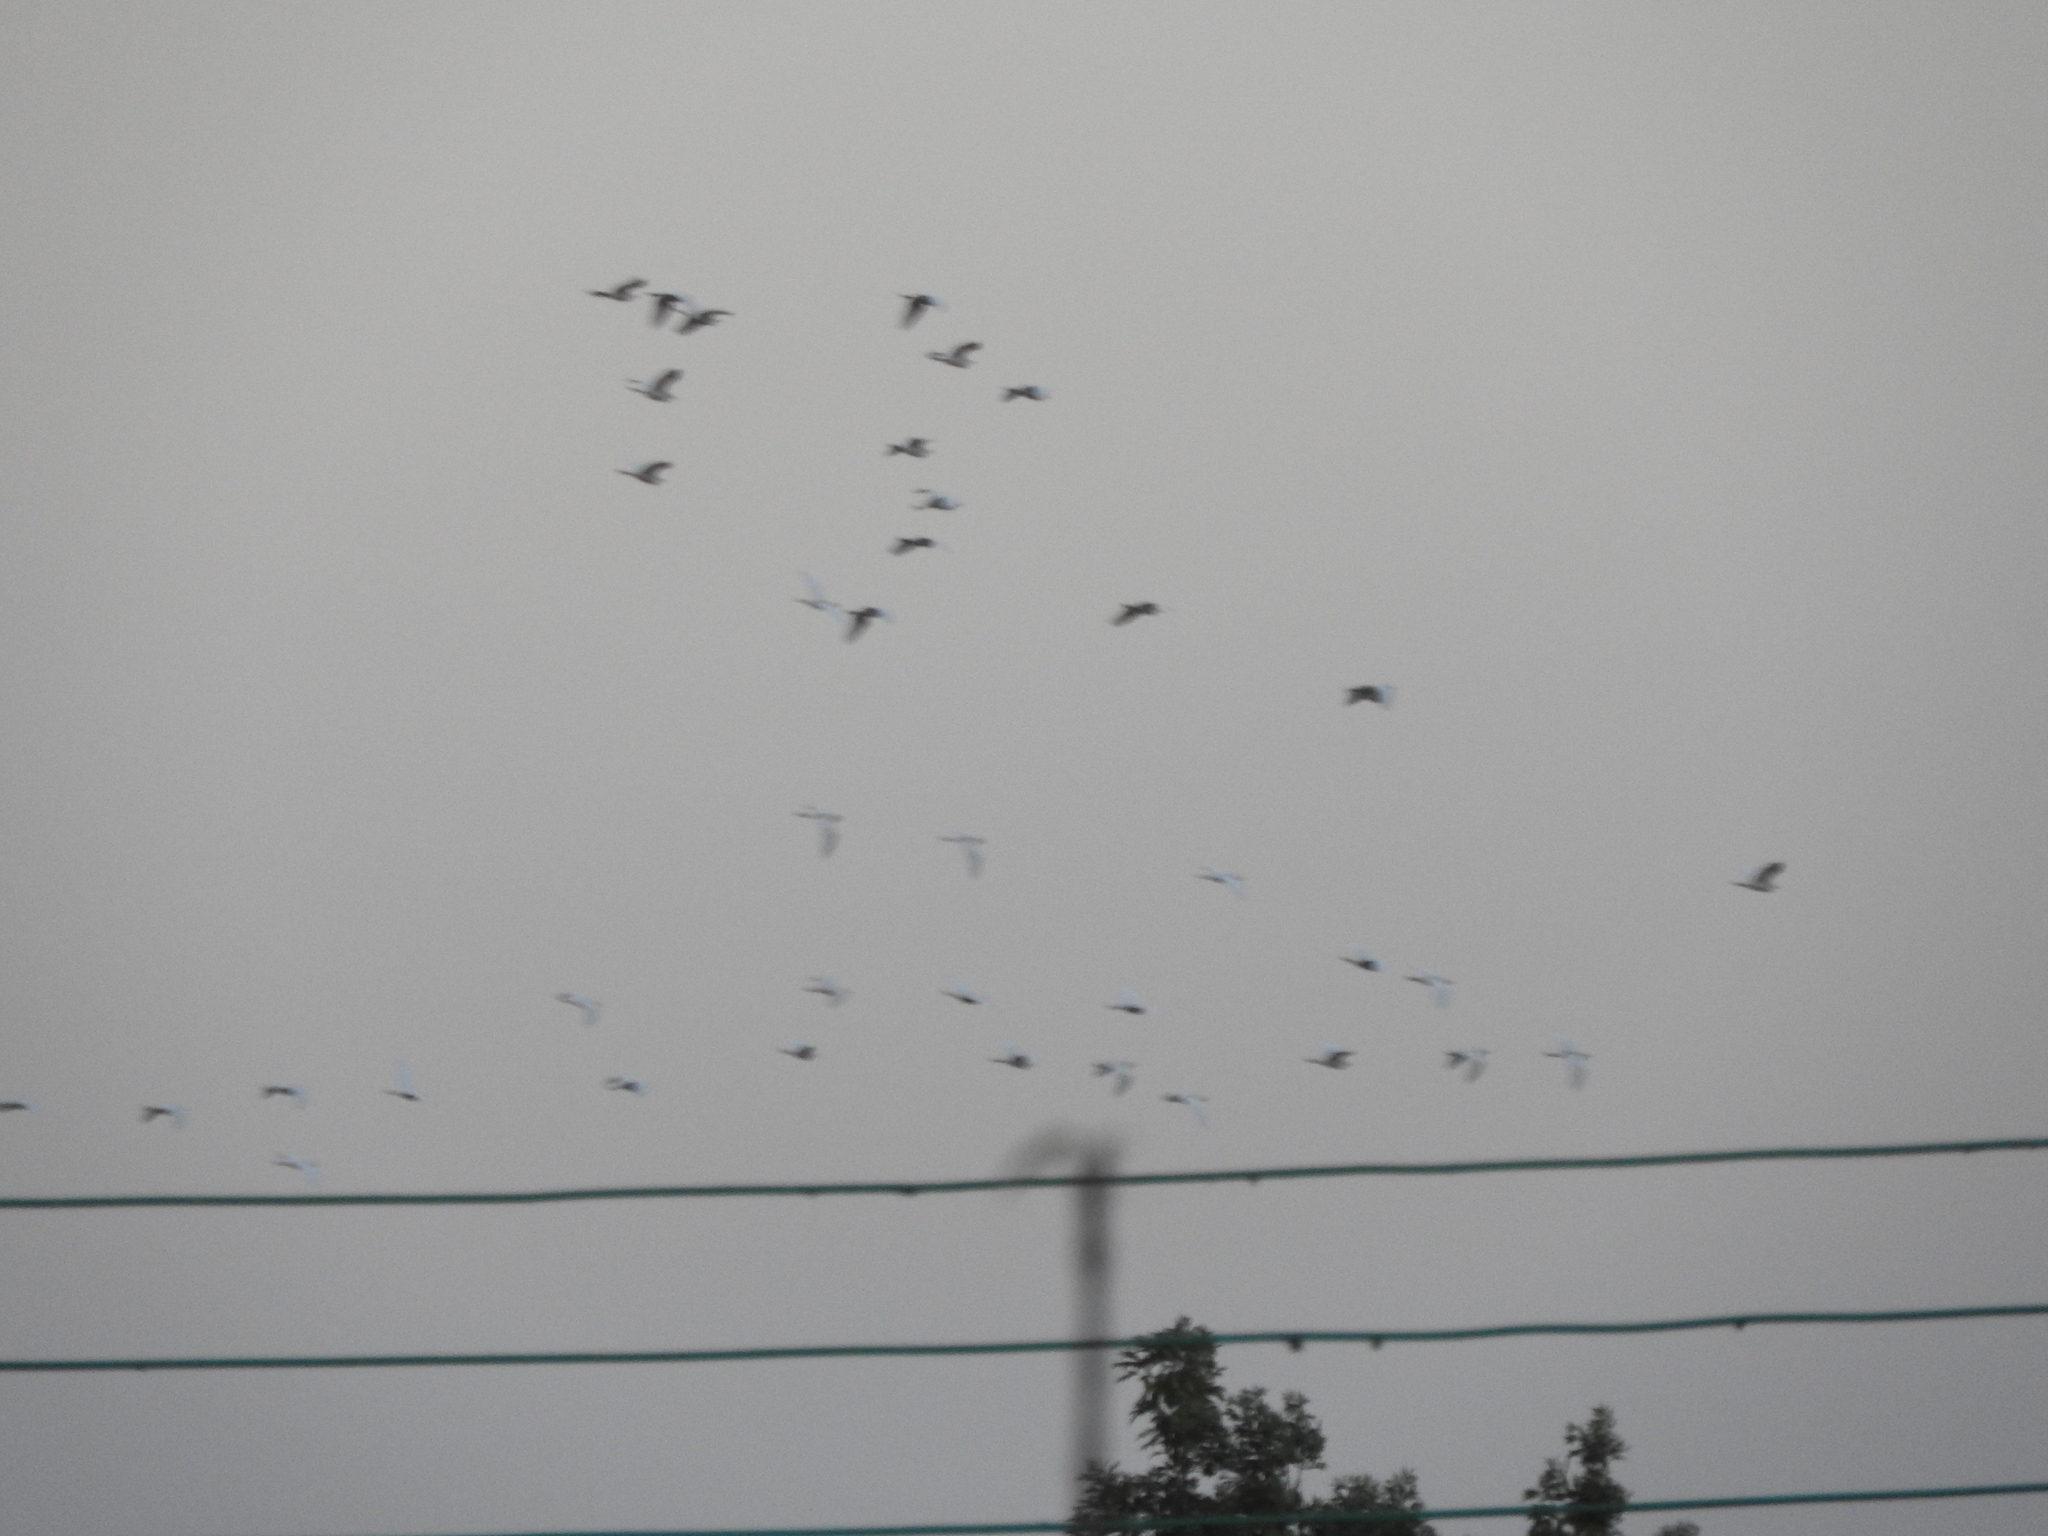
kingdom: Animalia
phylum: Chordata
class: Aves
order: Pelecaniformes
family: Ardeidae
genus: Bubulcus
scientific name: Bubulcus ibis
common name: Cattle egret
